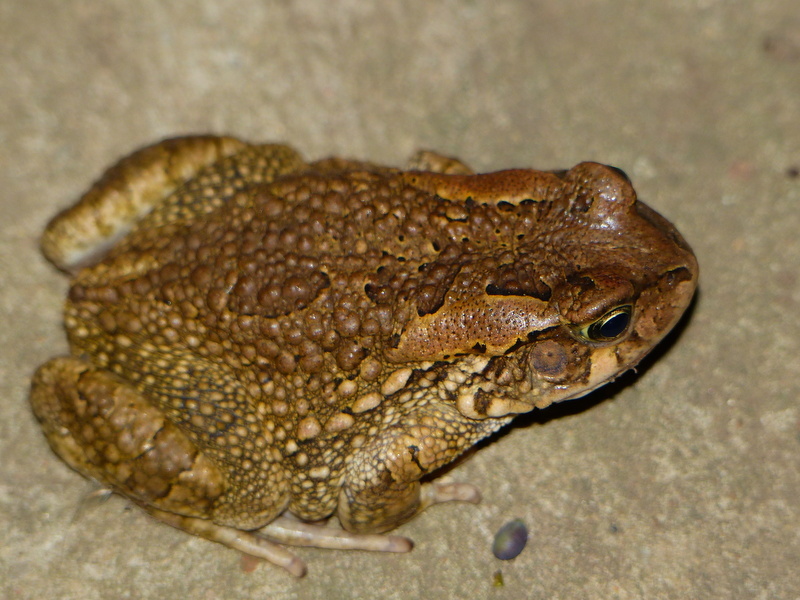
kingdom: Animalia
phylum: Chordata
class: Amphibia
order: Anura
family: Bufonidae
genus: Sclerophrys
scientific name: Sclerophrys capensis
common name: Ranger’s toad
